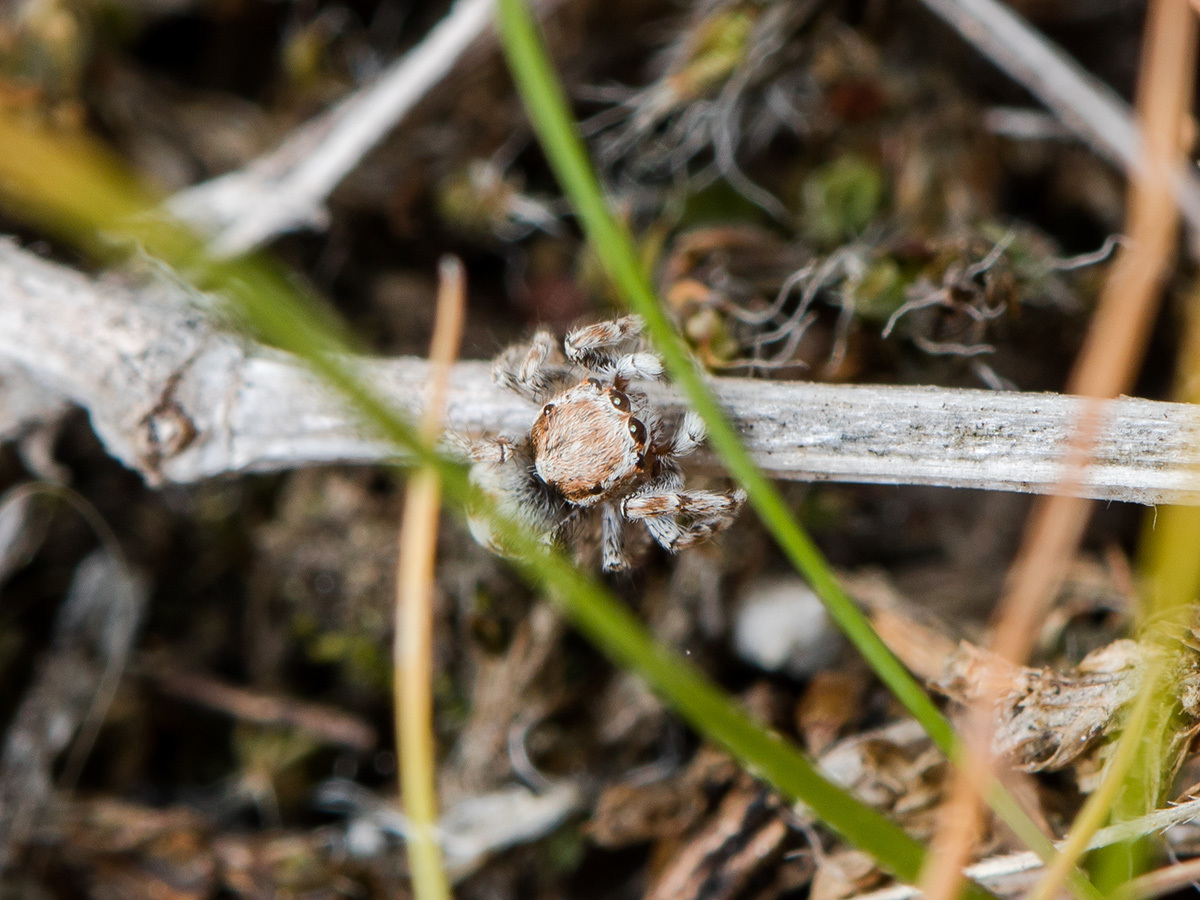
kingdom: Animalia
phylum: Arthropoda
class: Arachnida
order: Araneae
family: Salticidae
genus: Attulus
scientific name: Attulus avocator
